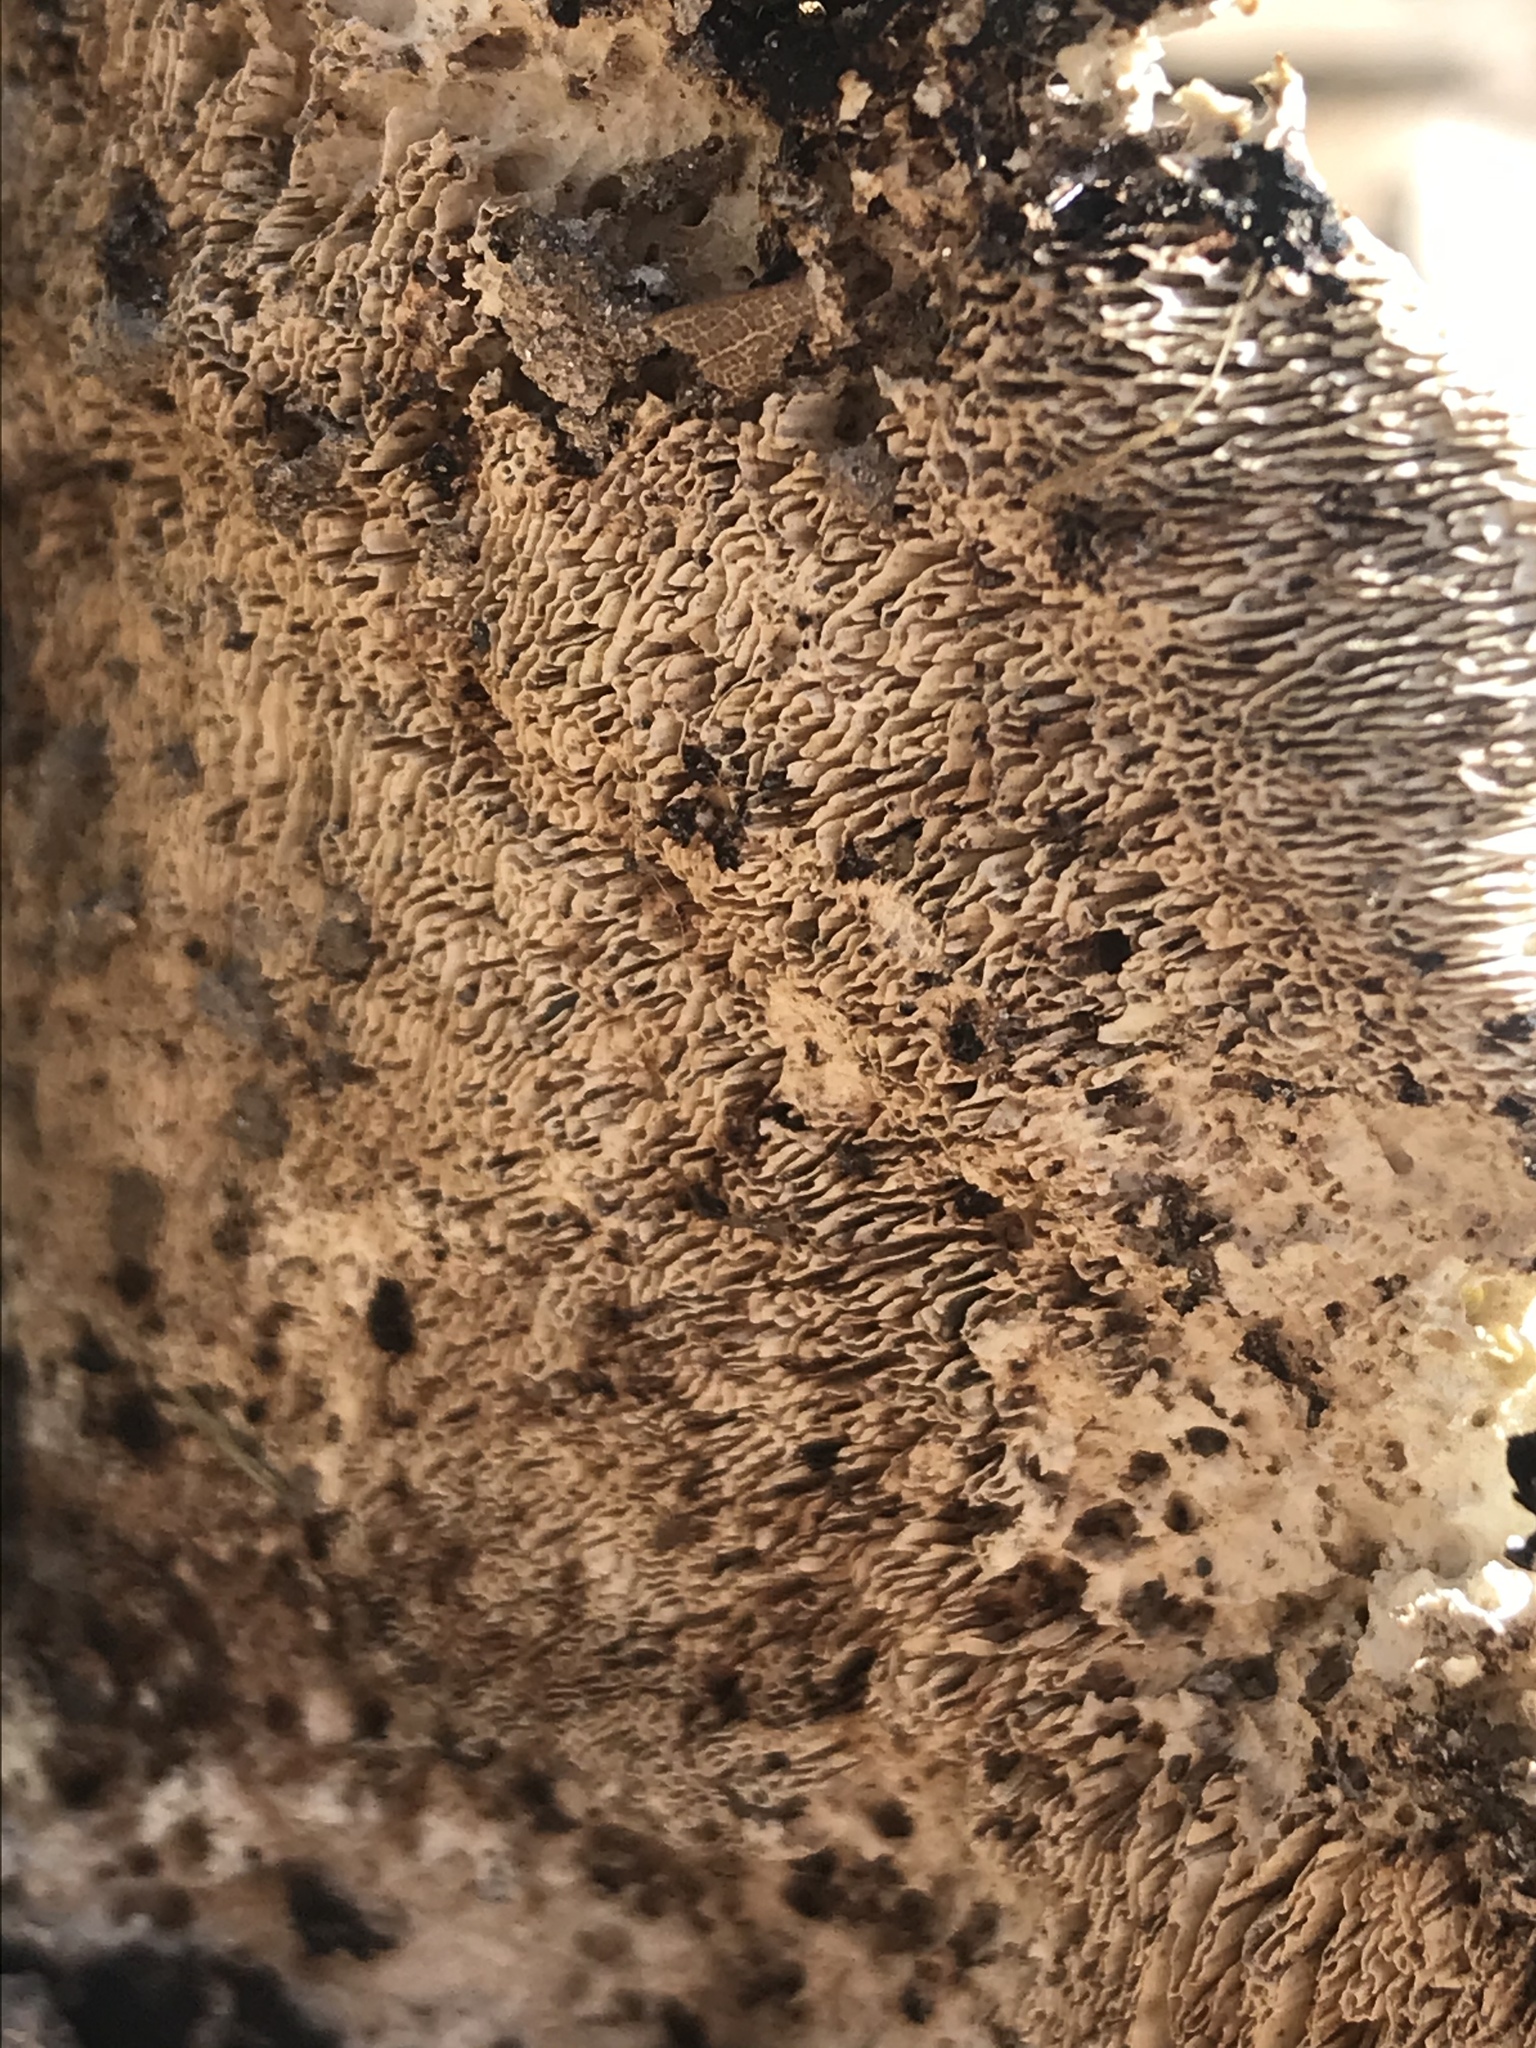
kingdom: Fungi
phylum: Basidiomycota
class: Agaricomycetes
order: Polyporales
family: Polyporaceae
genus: Trametes
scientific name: Trametes
